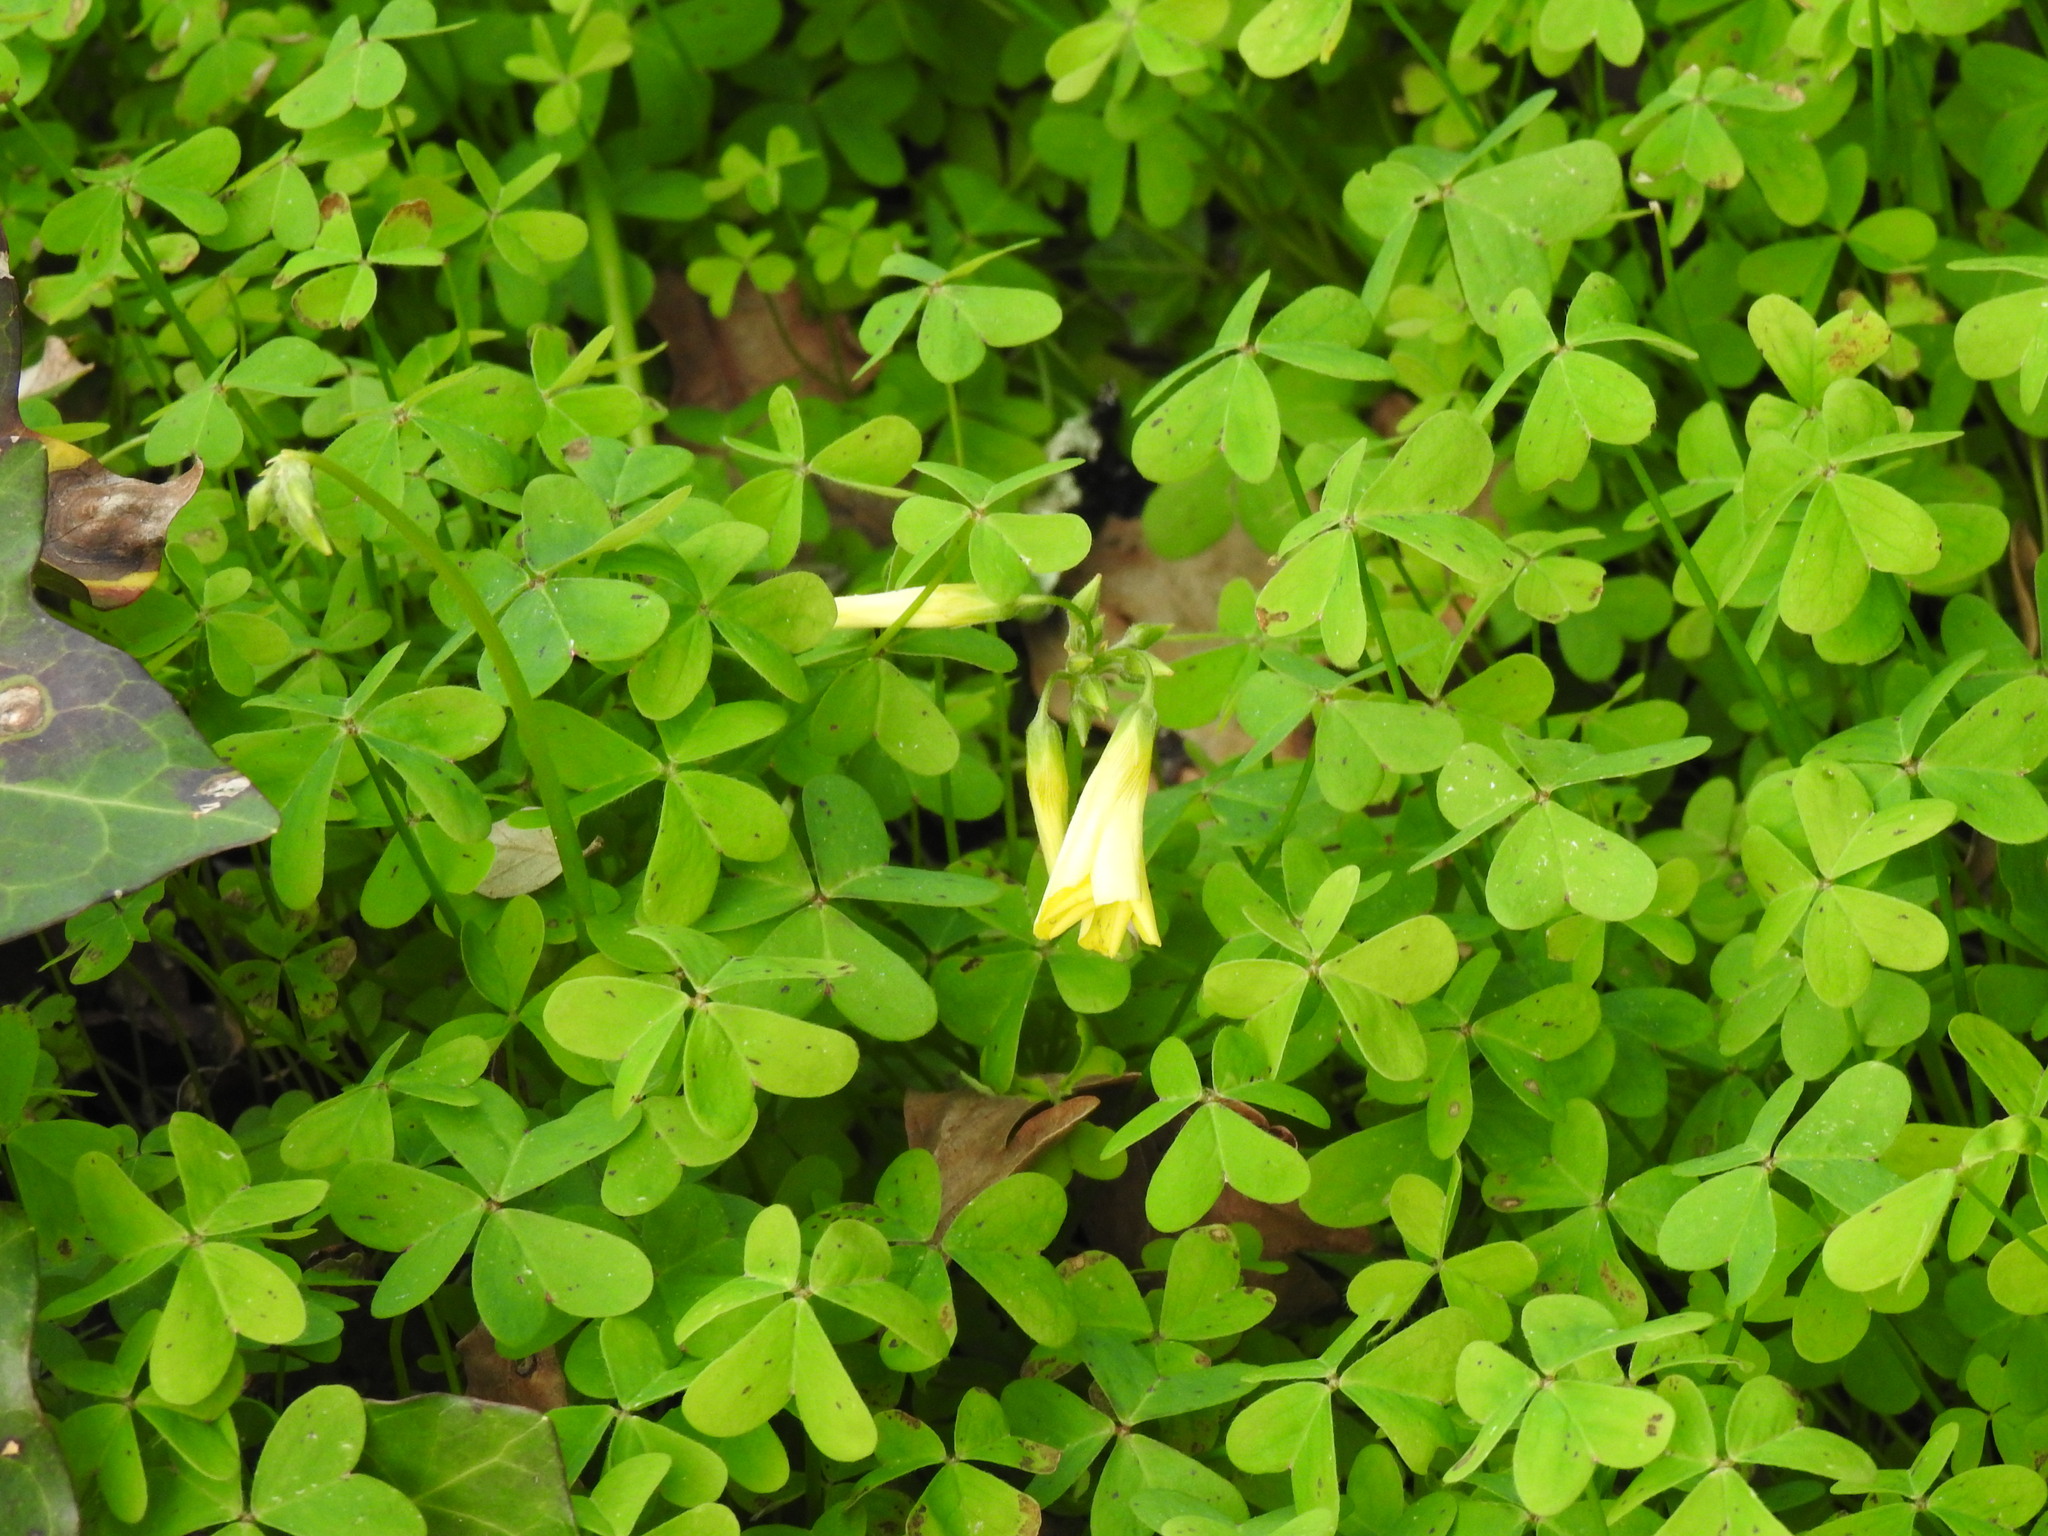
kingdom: Plantae
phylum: Tracheophyta
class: Magnoliopsida
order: Oxalidales
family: Oxalidaceae
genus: Oxalis
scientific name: Oxalis pes-caprae
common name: Bermuda-buttercup
